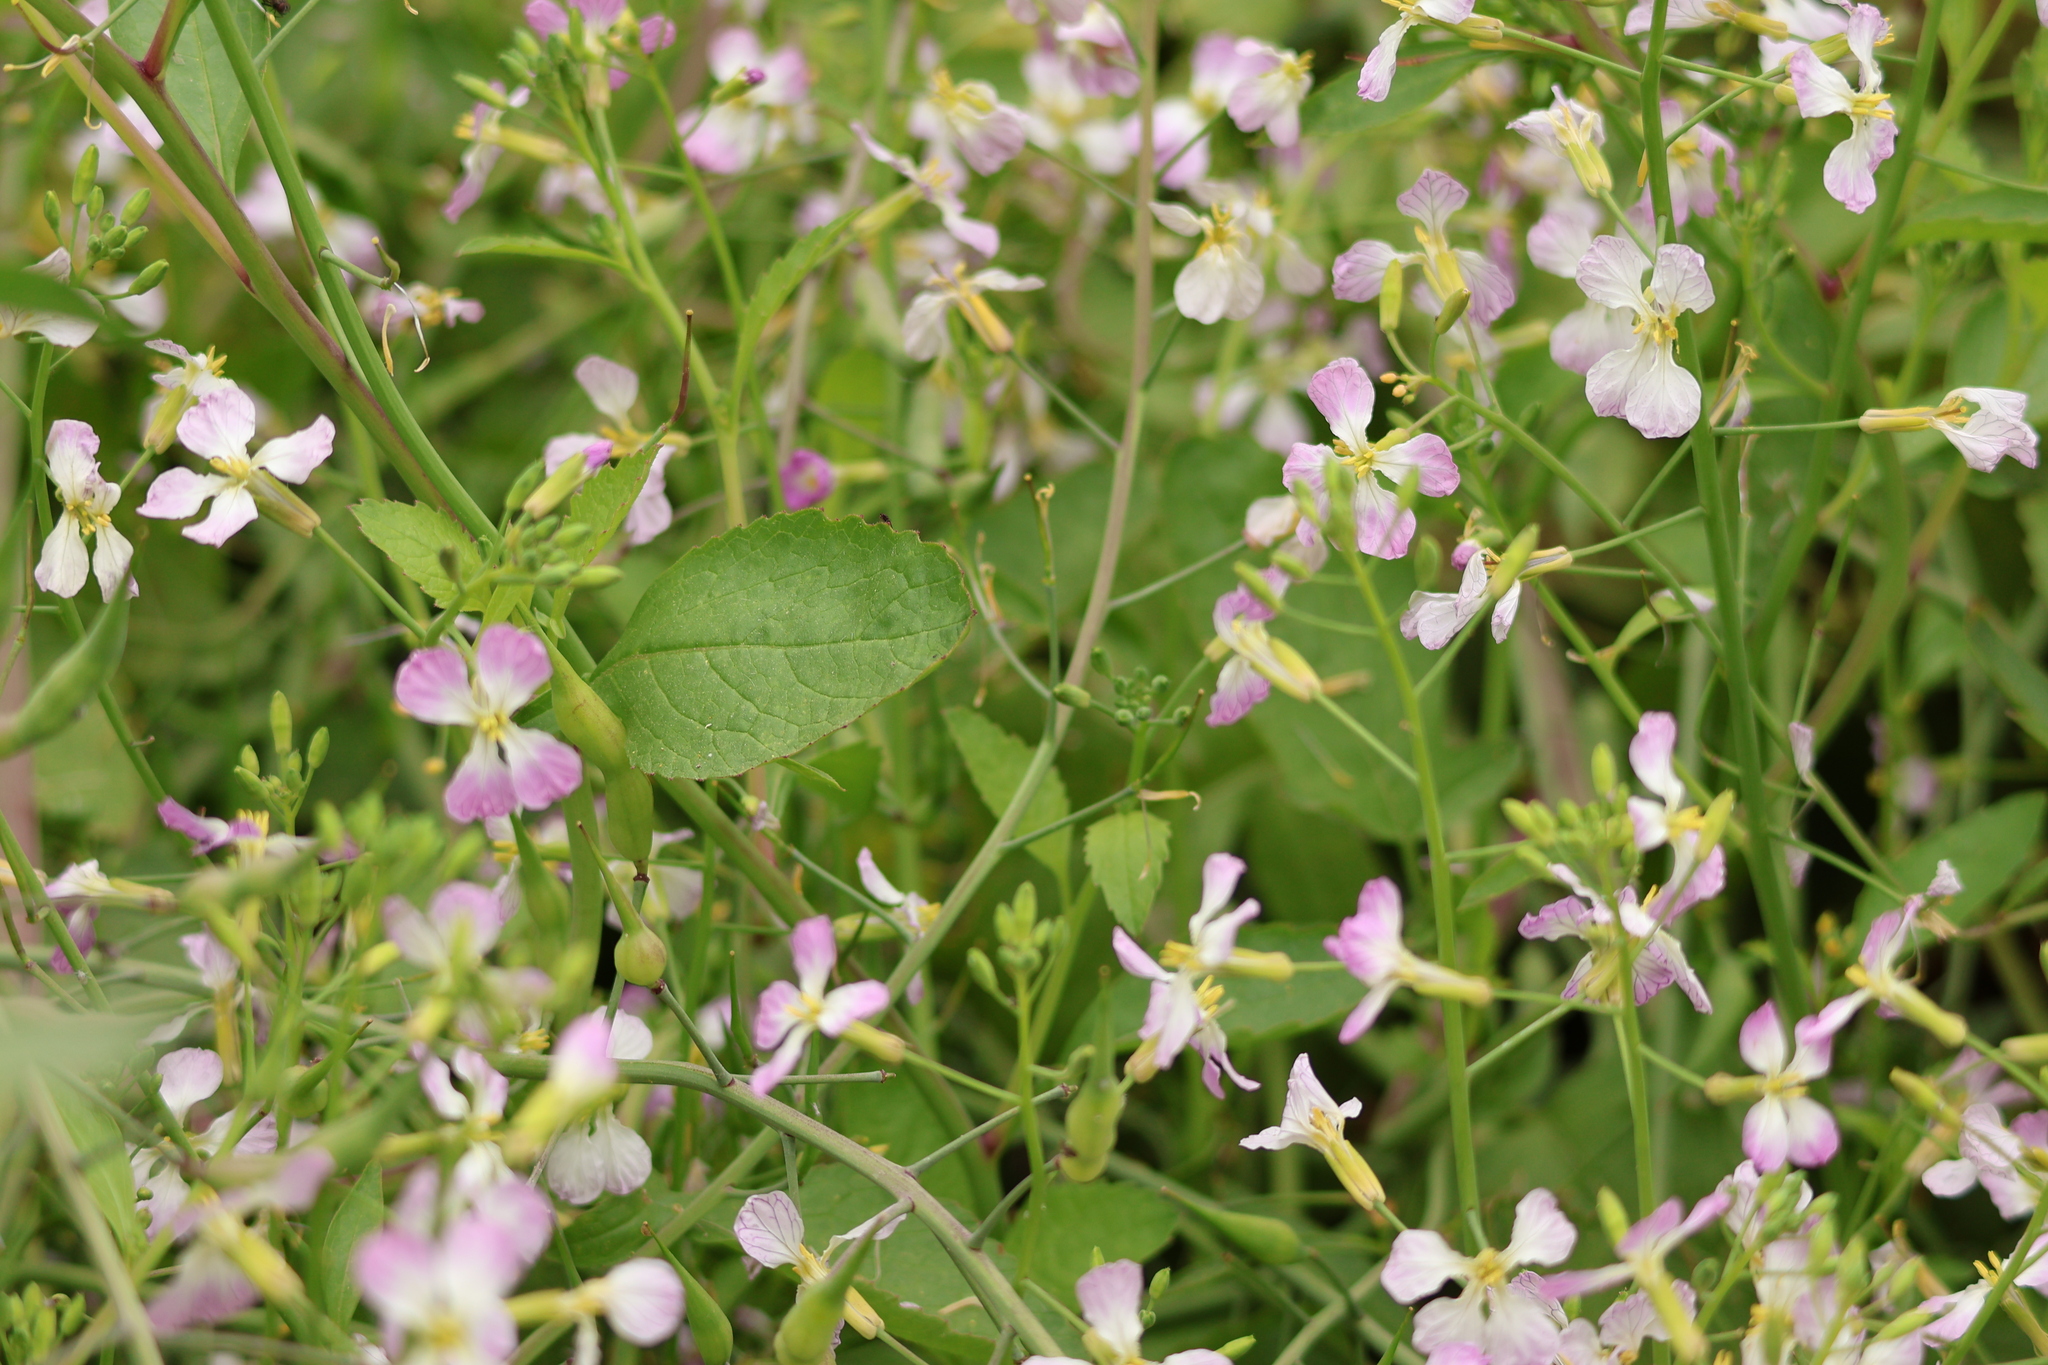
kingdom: Plantae
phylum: Tracheophyta
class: Magnoliopsida
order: Brassicales
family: Brassicaceae
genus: Raphanus
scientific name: Raphanus sativus
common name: Cultivated radish
